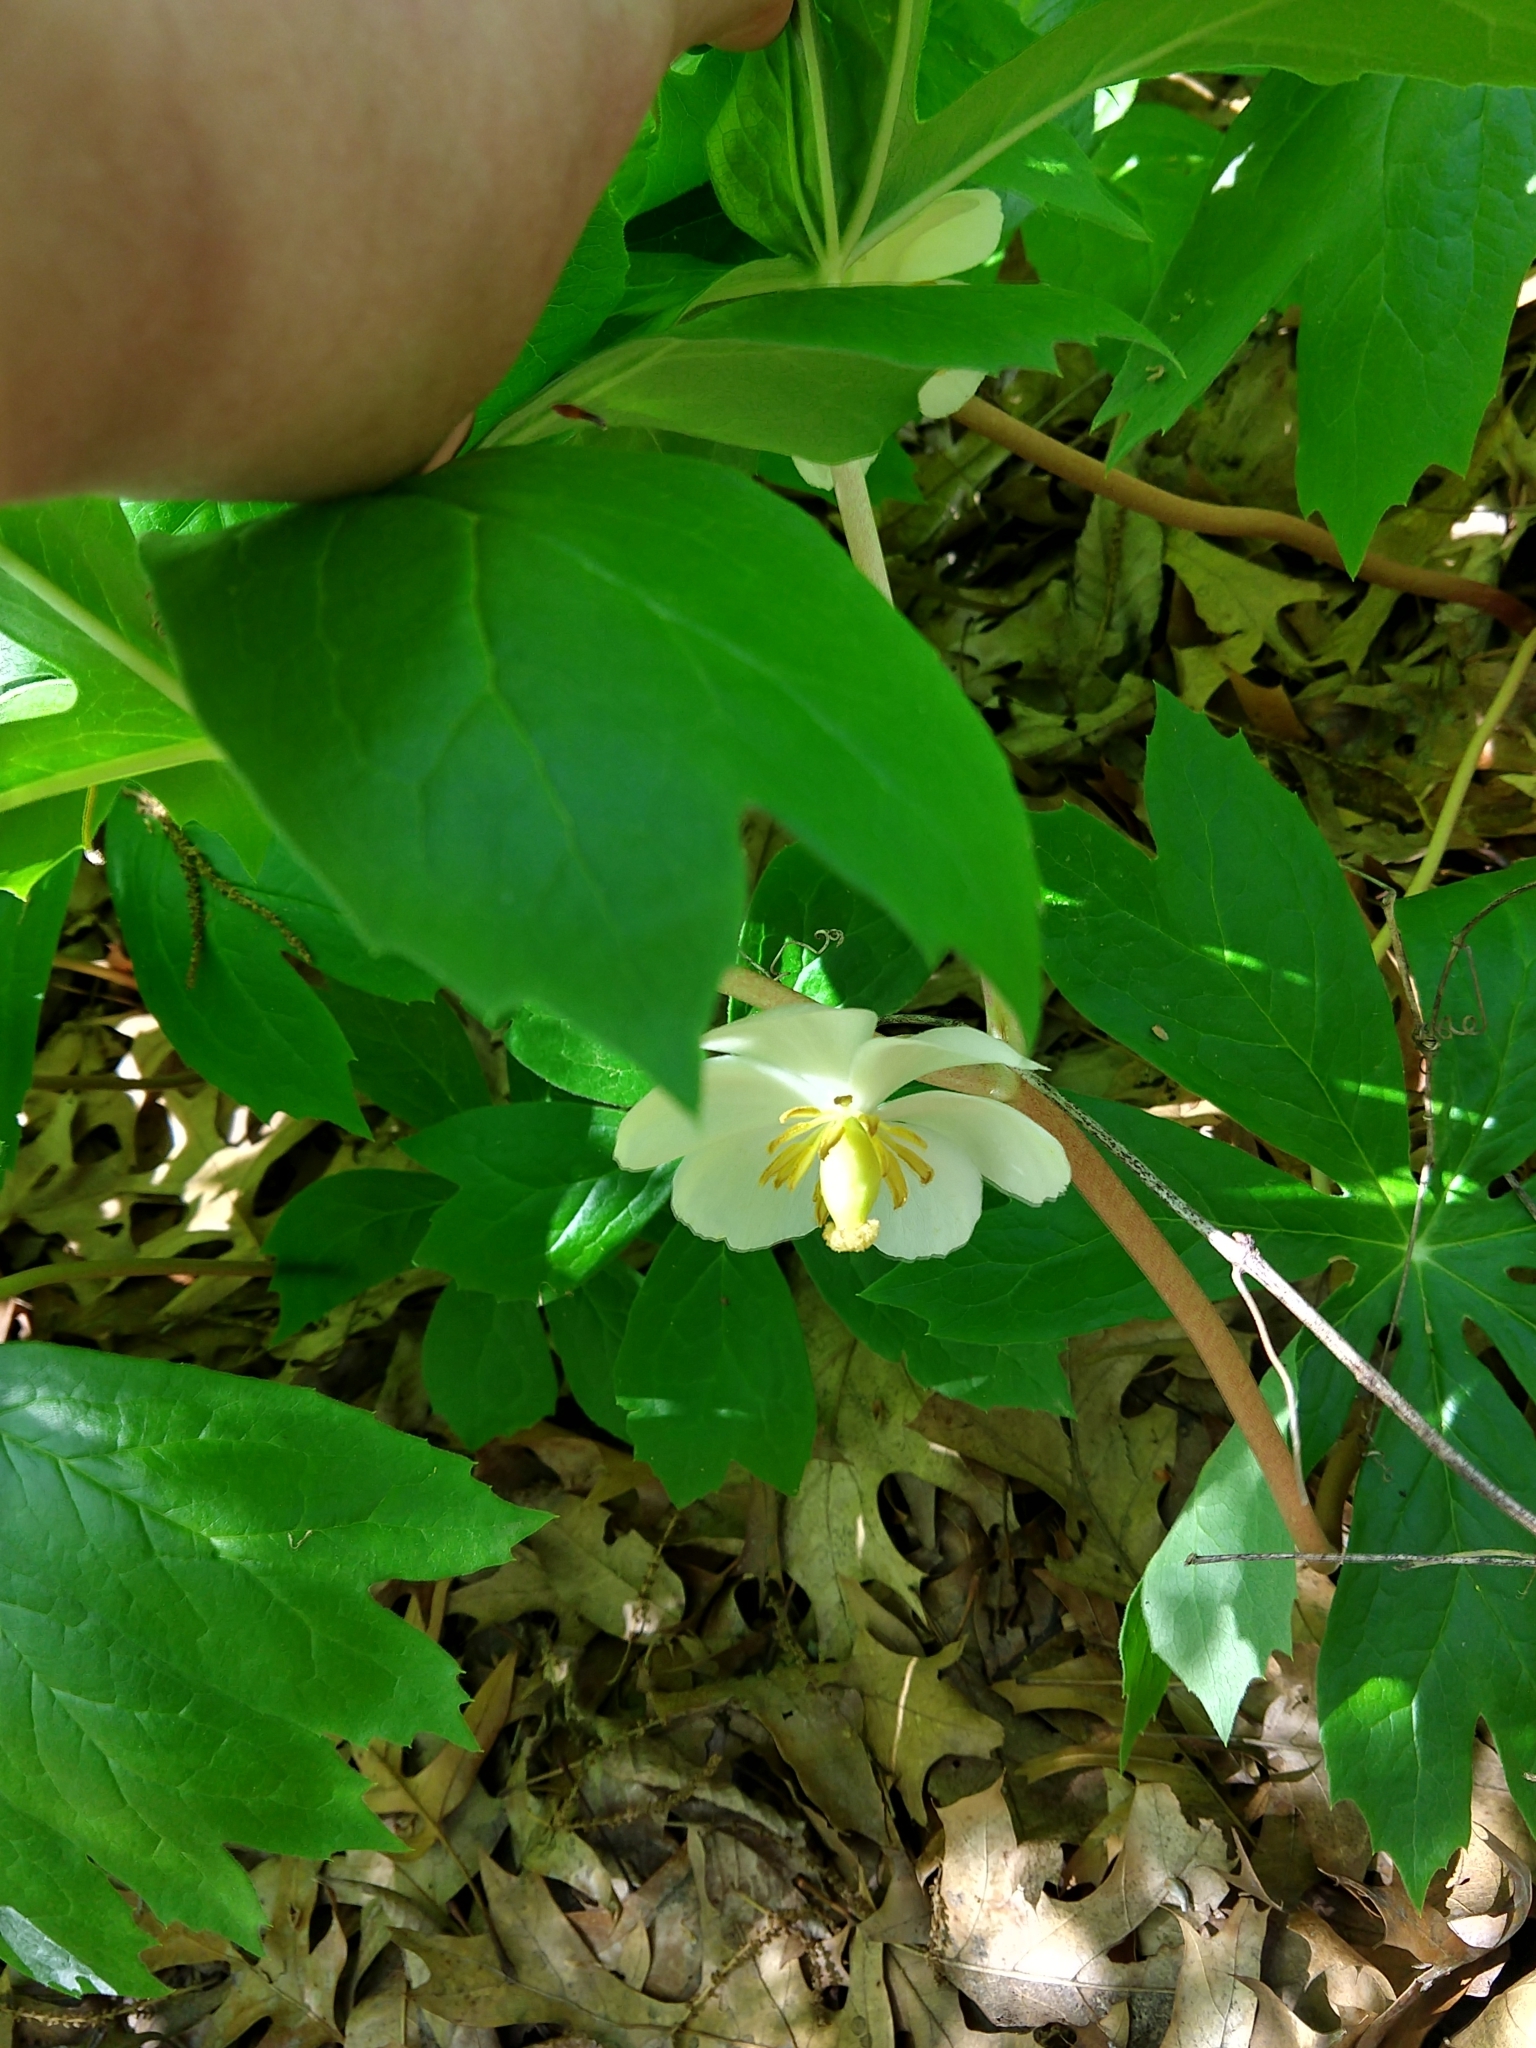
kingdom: Plantae
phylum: Tracheophyta
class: Magnoliopsida
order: Ranunculales
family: Berberidaceae
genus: Podophyllum
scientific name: Podophyllum peltatum
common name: Wild mandrake
